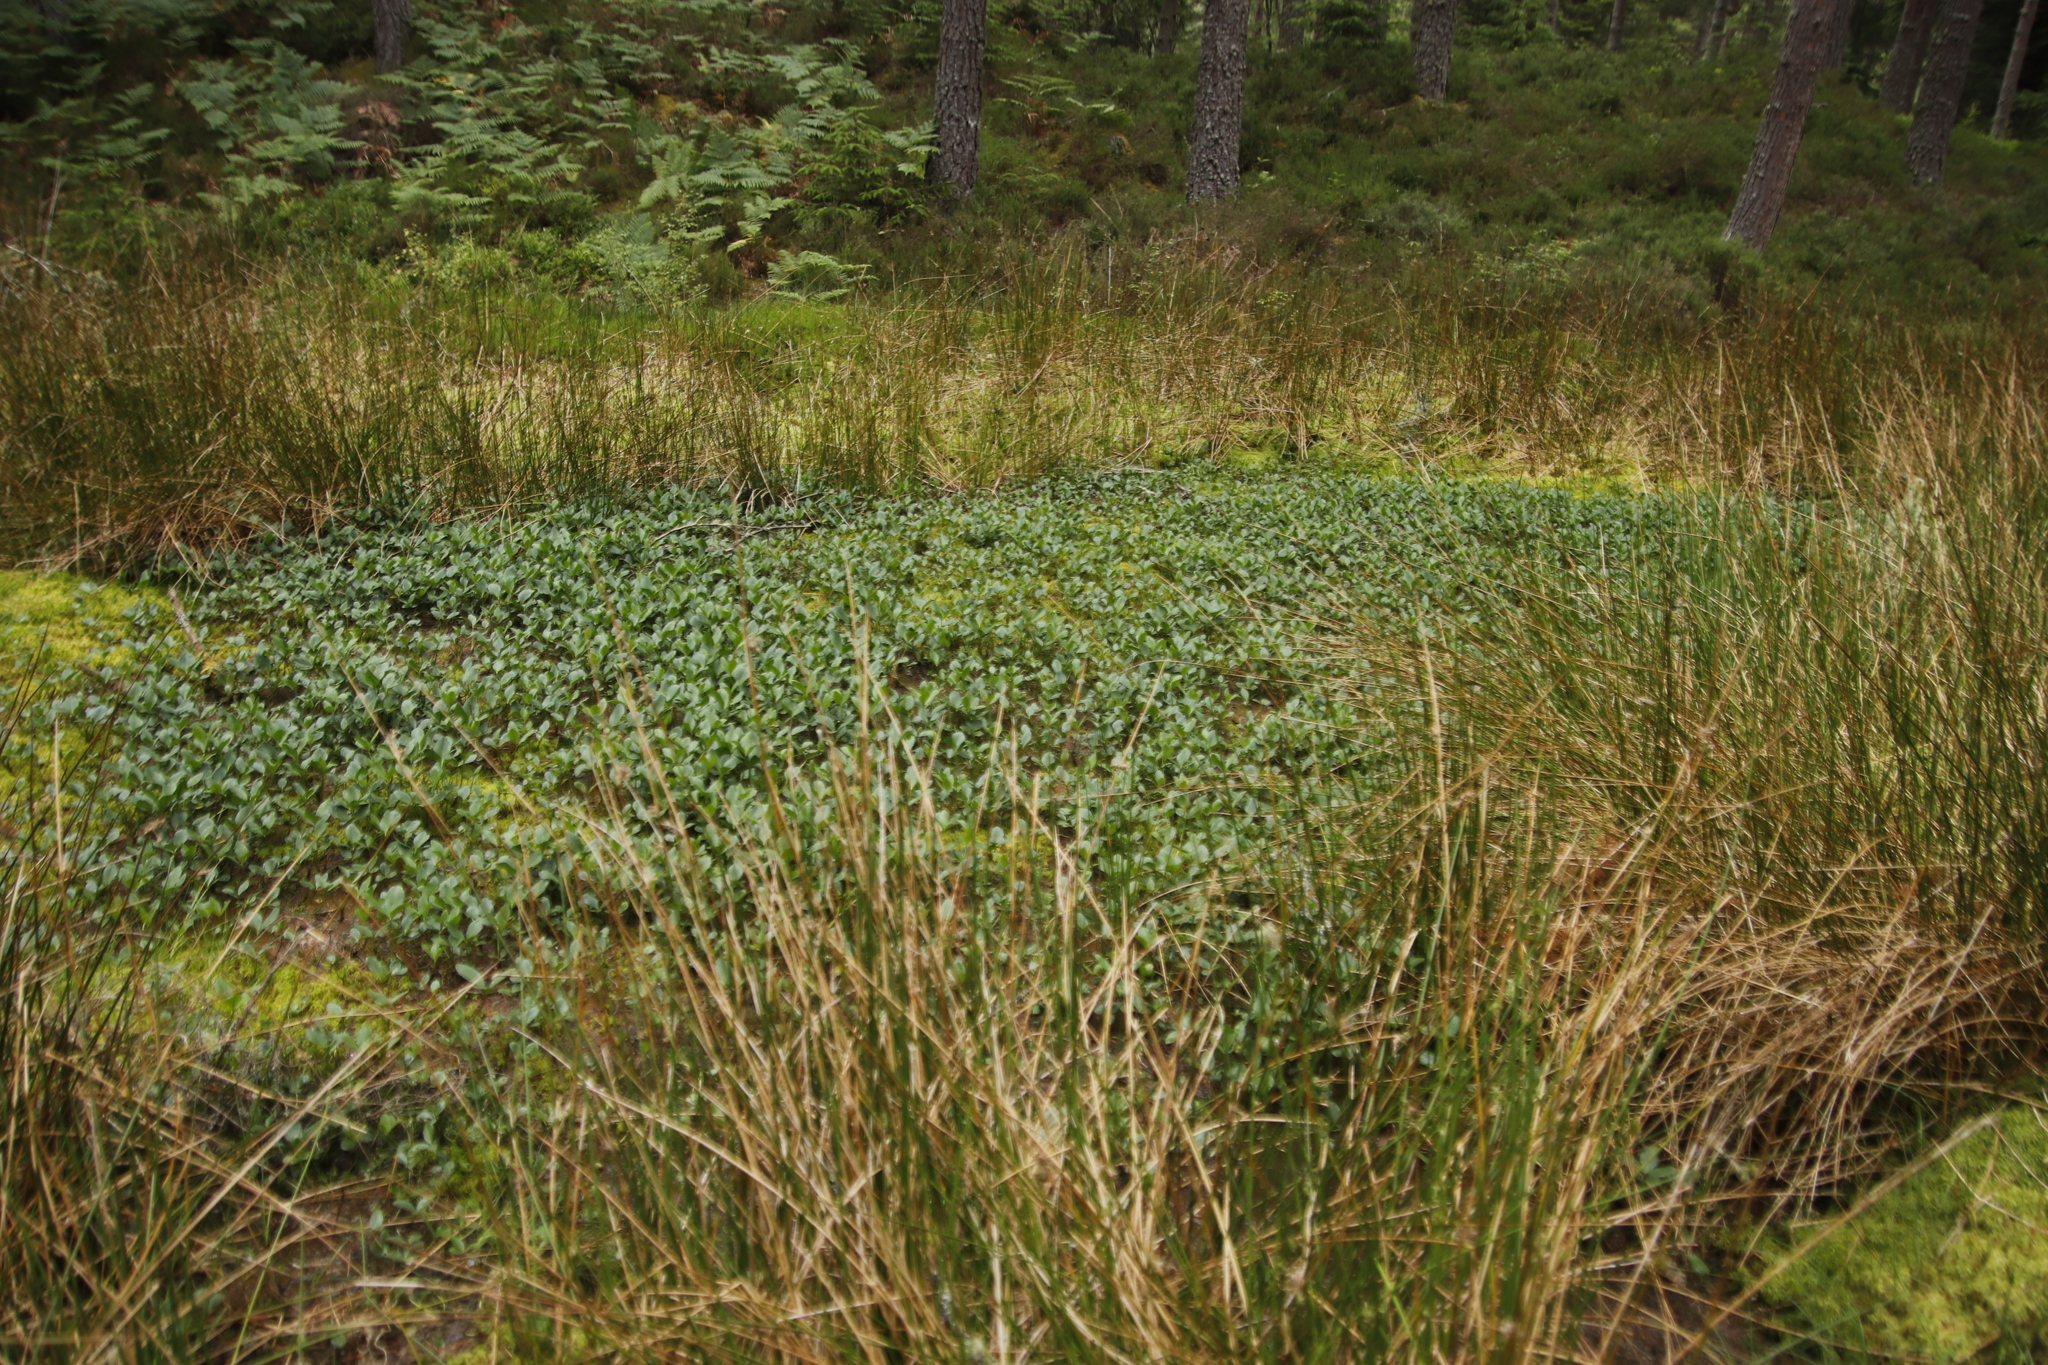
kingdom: Plantae
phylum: Tracheophyta
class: Magnoliopsida
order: Asterales
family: Menyanthaceae
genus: Menyanthes
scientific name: Menyanthes trifoliata
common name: Bogbean
